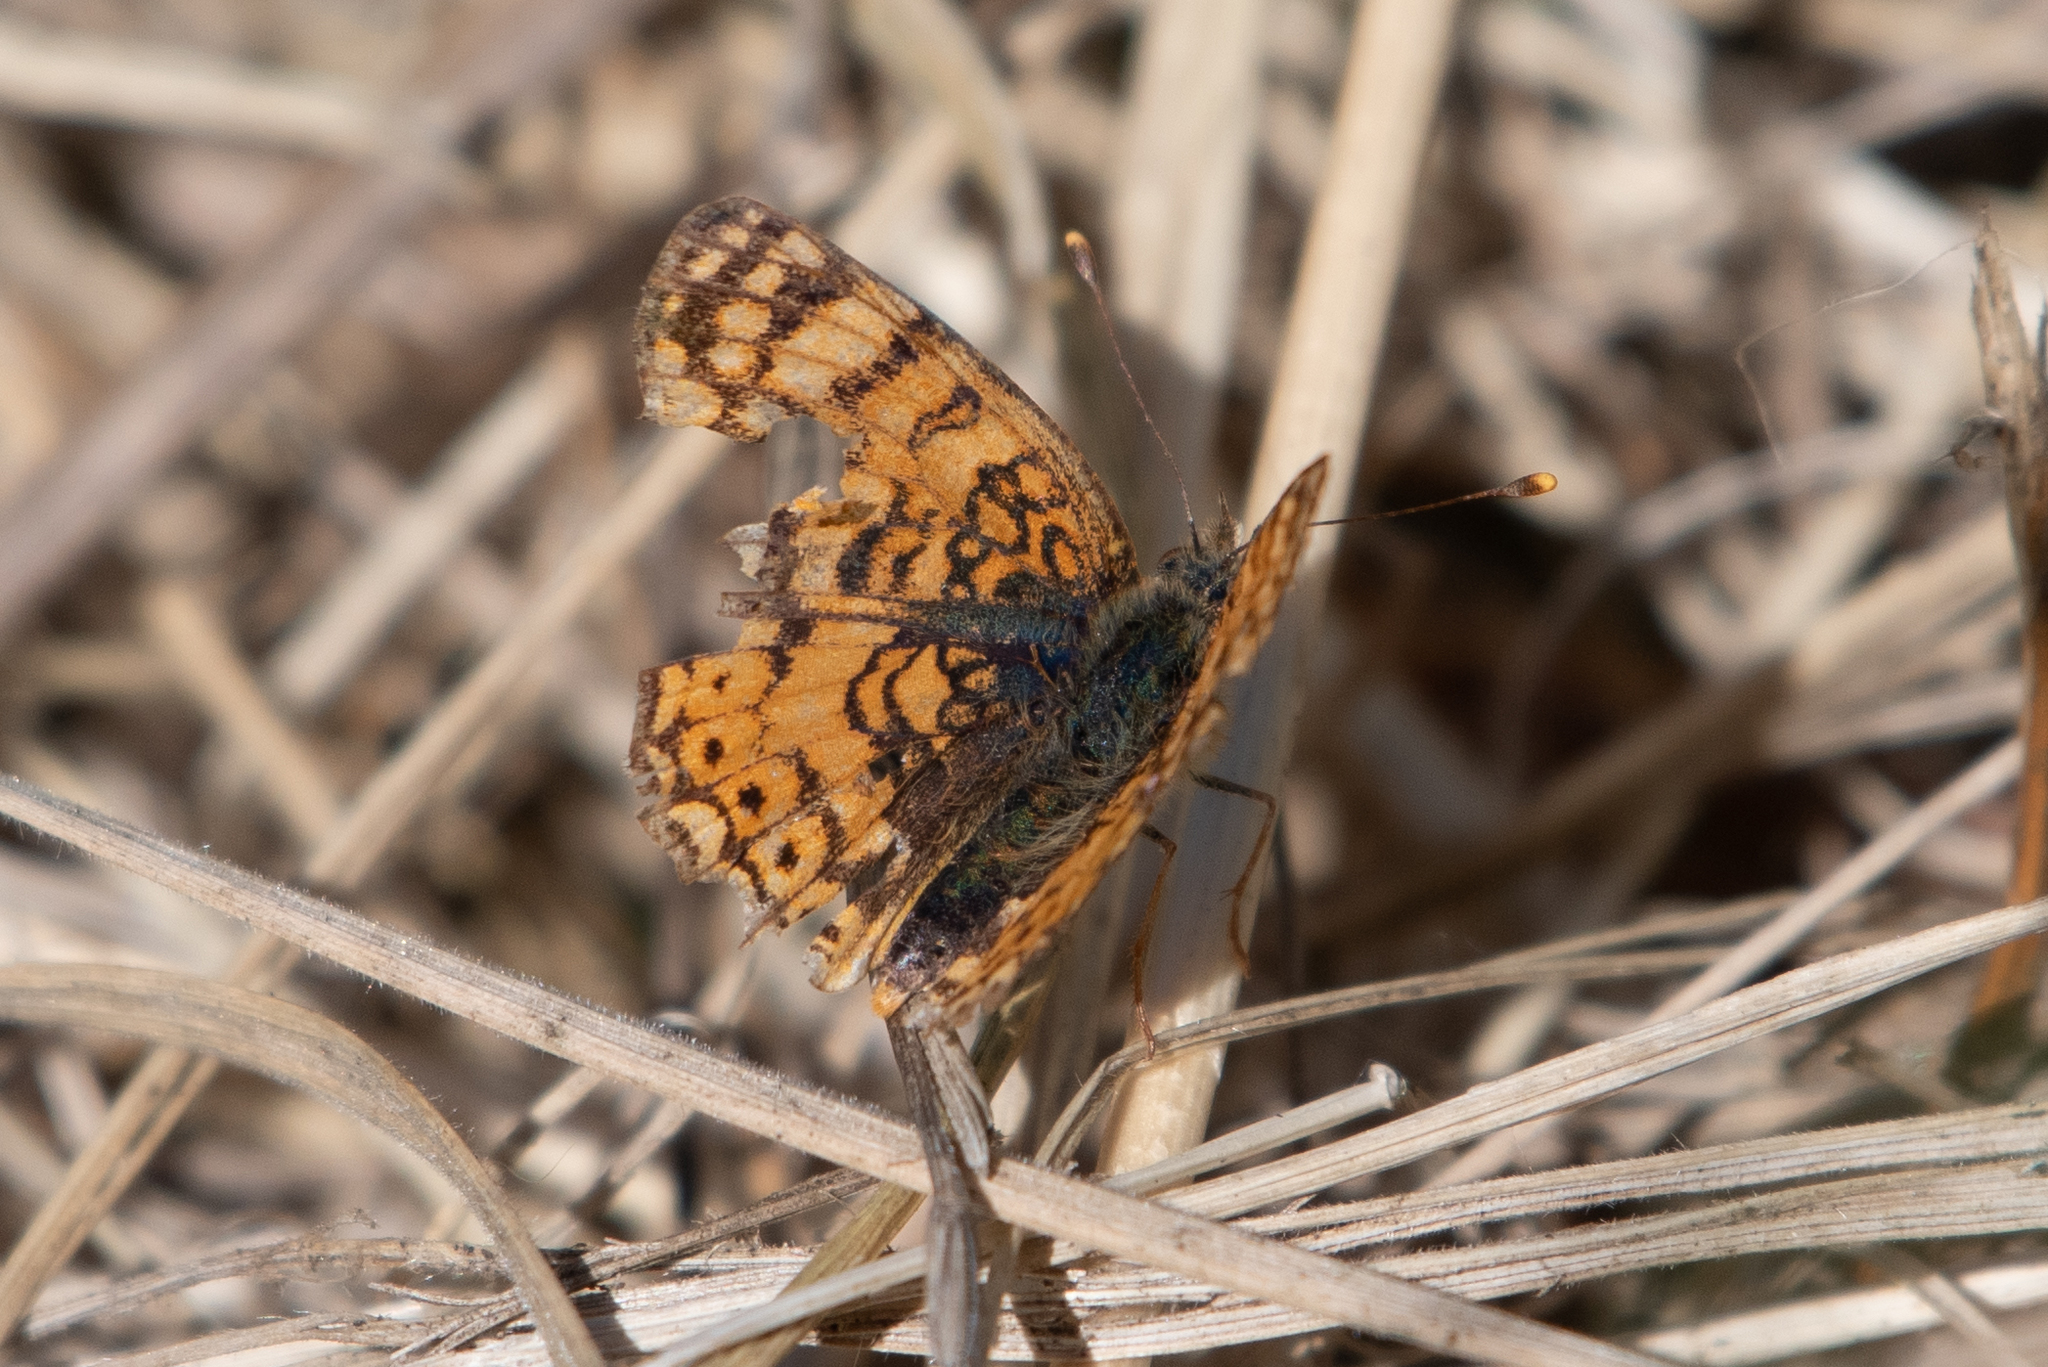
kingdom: Animalia
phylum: Arthropoda
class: Insecta
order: Lepidoptera
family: Nymphalidae
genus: Eresia
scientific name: Eresia aveyrona
